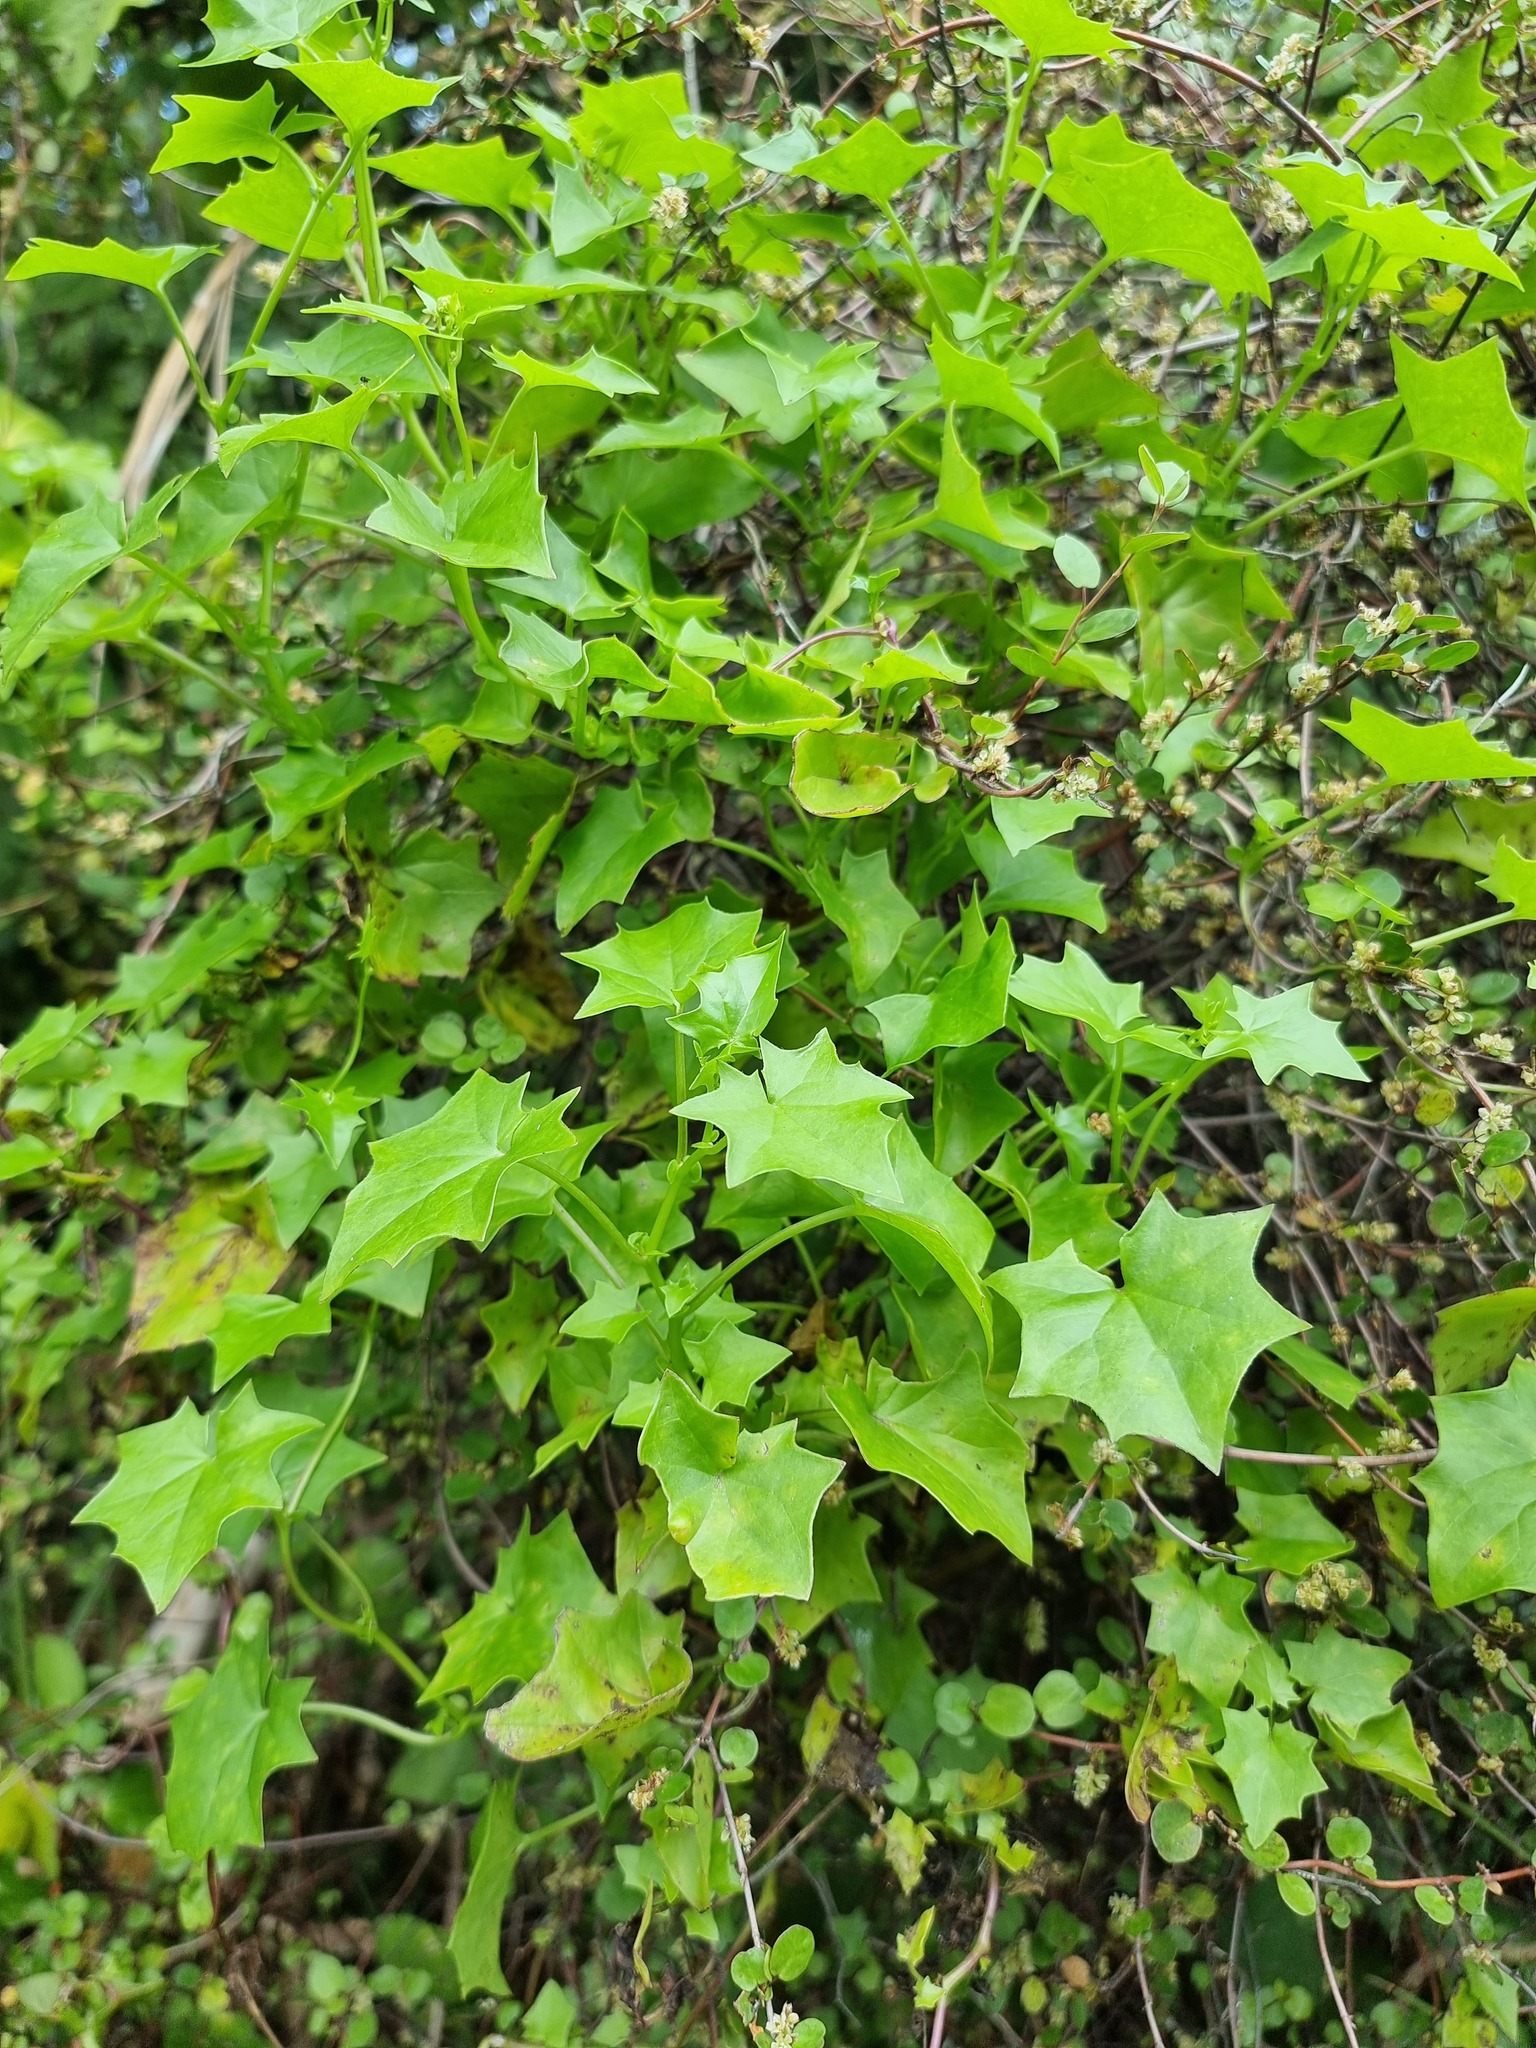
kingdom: Plantae
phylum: Tracheophyta
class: Magnoliopsida
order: Asterales
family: Asteraceae
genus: Delairea
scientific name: Delairea odorata
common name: Cape-ivy
